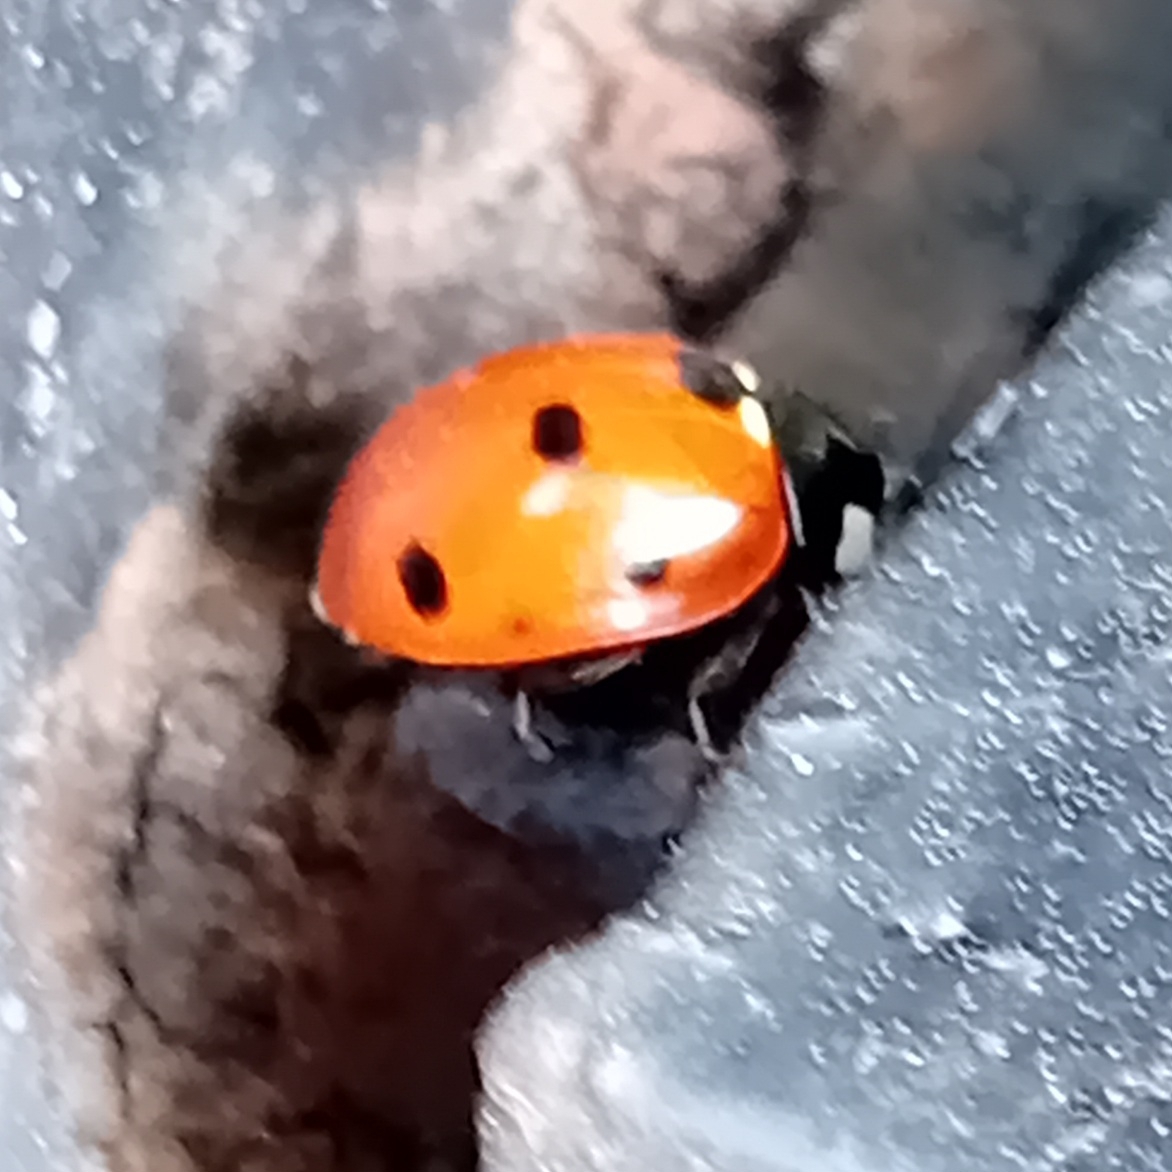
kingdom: Animalia
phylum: Arthropoda
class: Insecta
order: Coleoptera
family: Coccinellidae
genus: Coccinella
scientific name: Coccinella septempunctata
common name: Sevenspotted lady beetle
